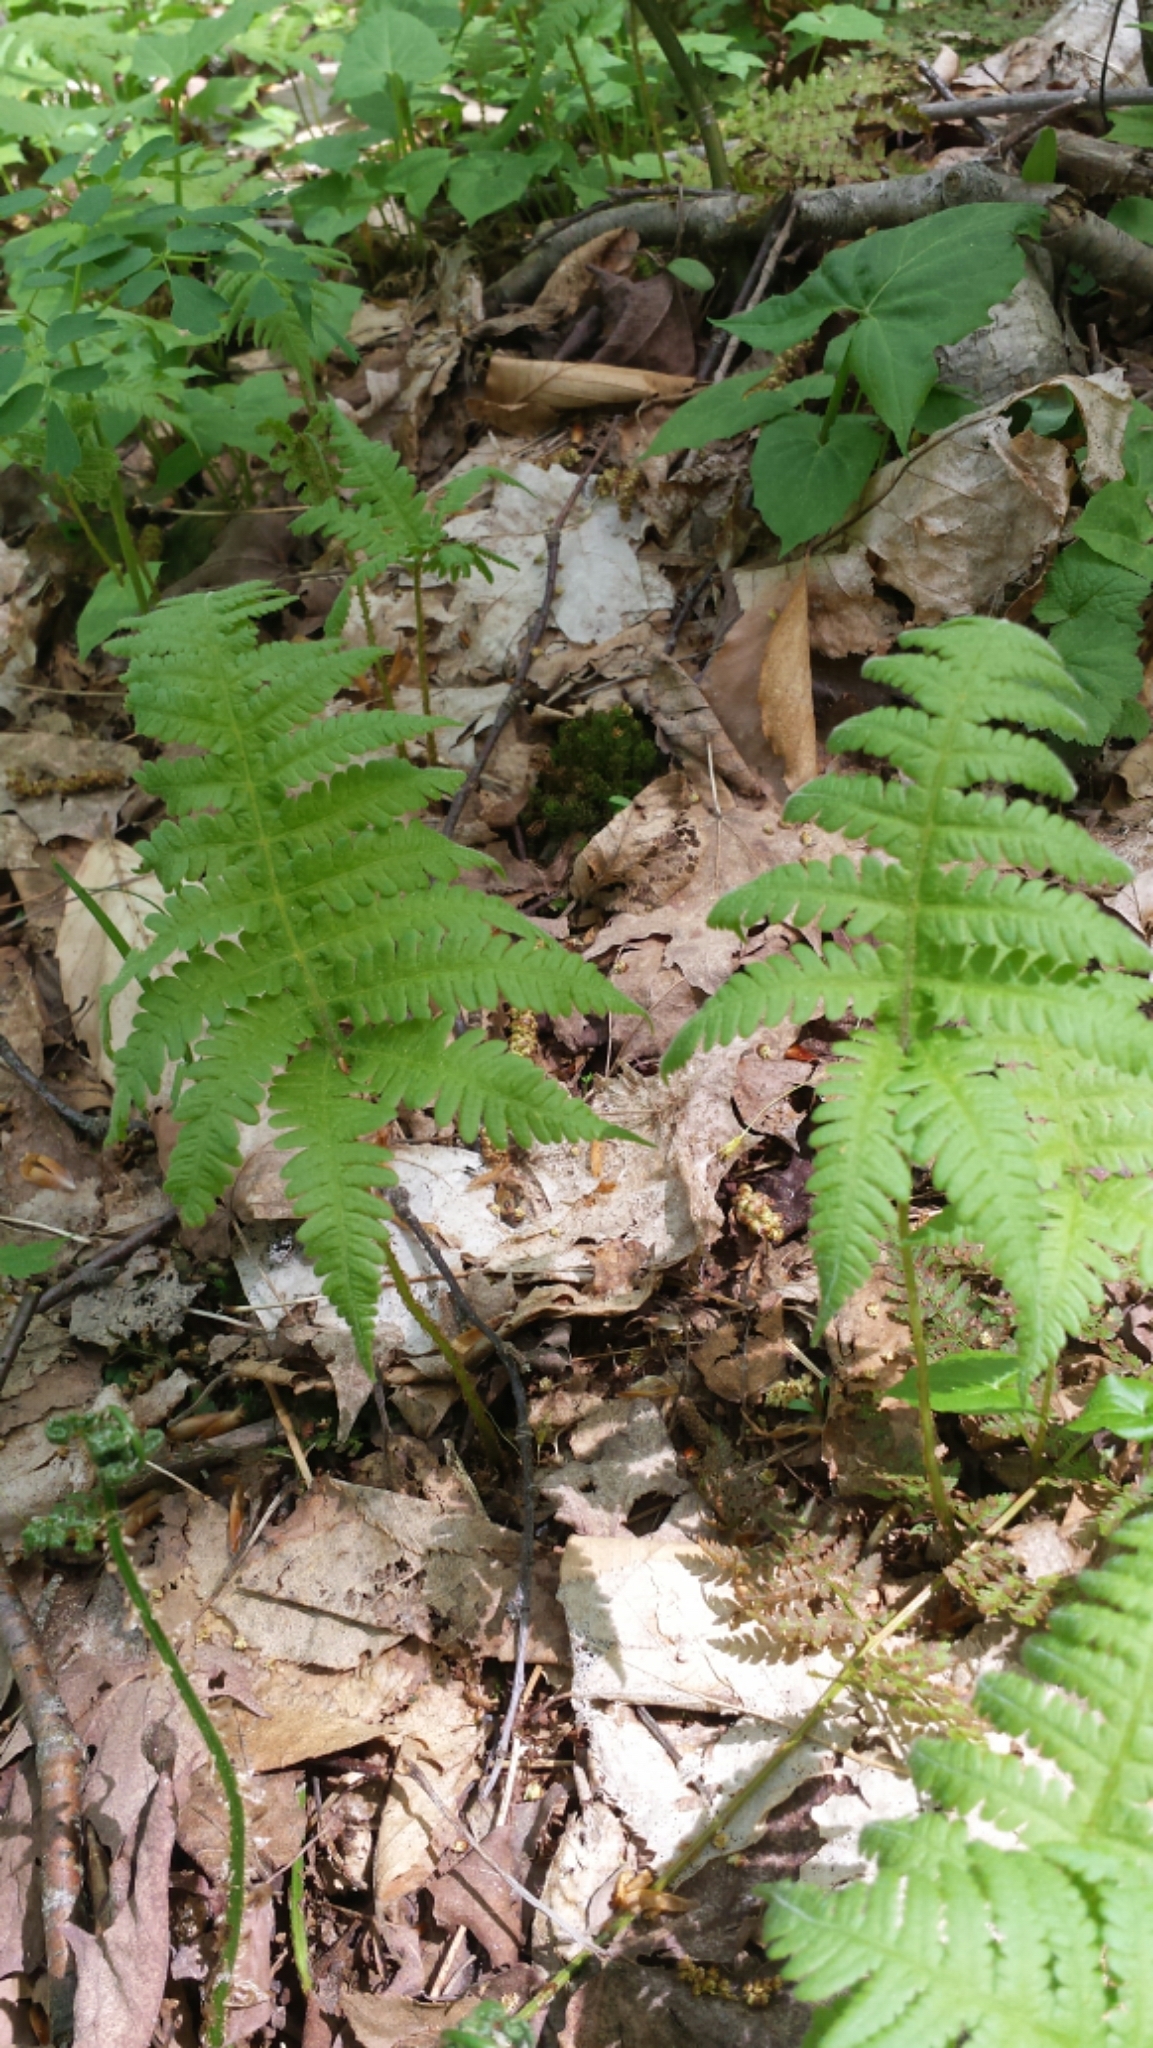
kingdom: Plantae
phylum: Tracheophyta
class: Polypodiopsida
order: Polypodiales
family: Thelypteridaceae
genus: Phegopteris
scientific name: Phegopteris connectilis
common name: Beech fern
